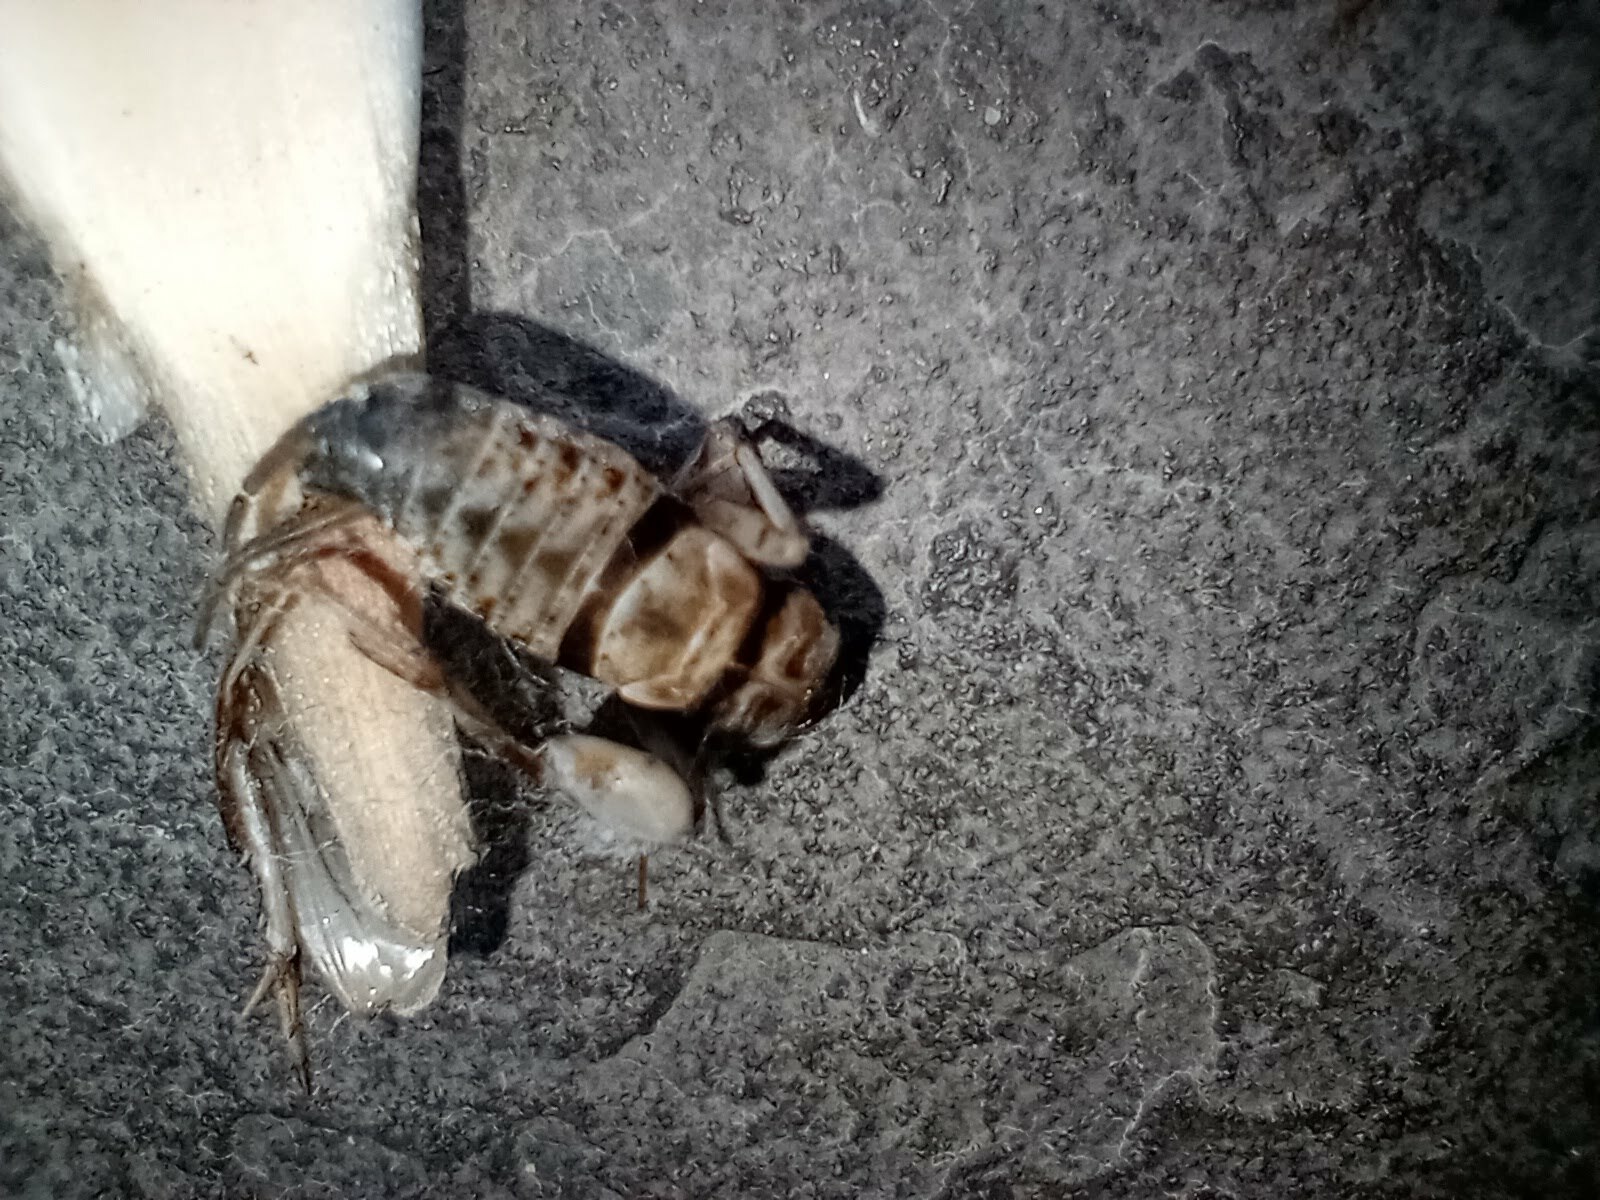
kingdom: Animalia
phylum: Arthropoda
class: Insecta
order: Orthoptera
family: Gryllidae
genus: Gryllodes
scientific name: Gryllodes sigillatus
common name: Tropical house cricket
